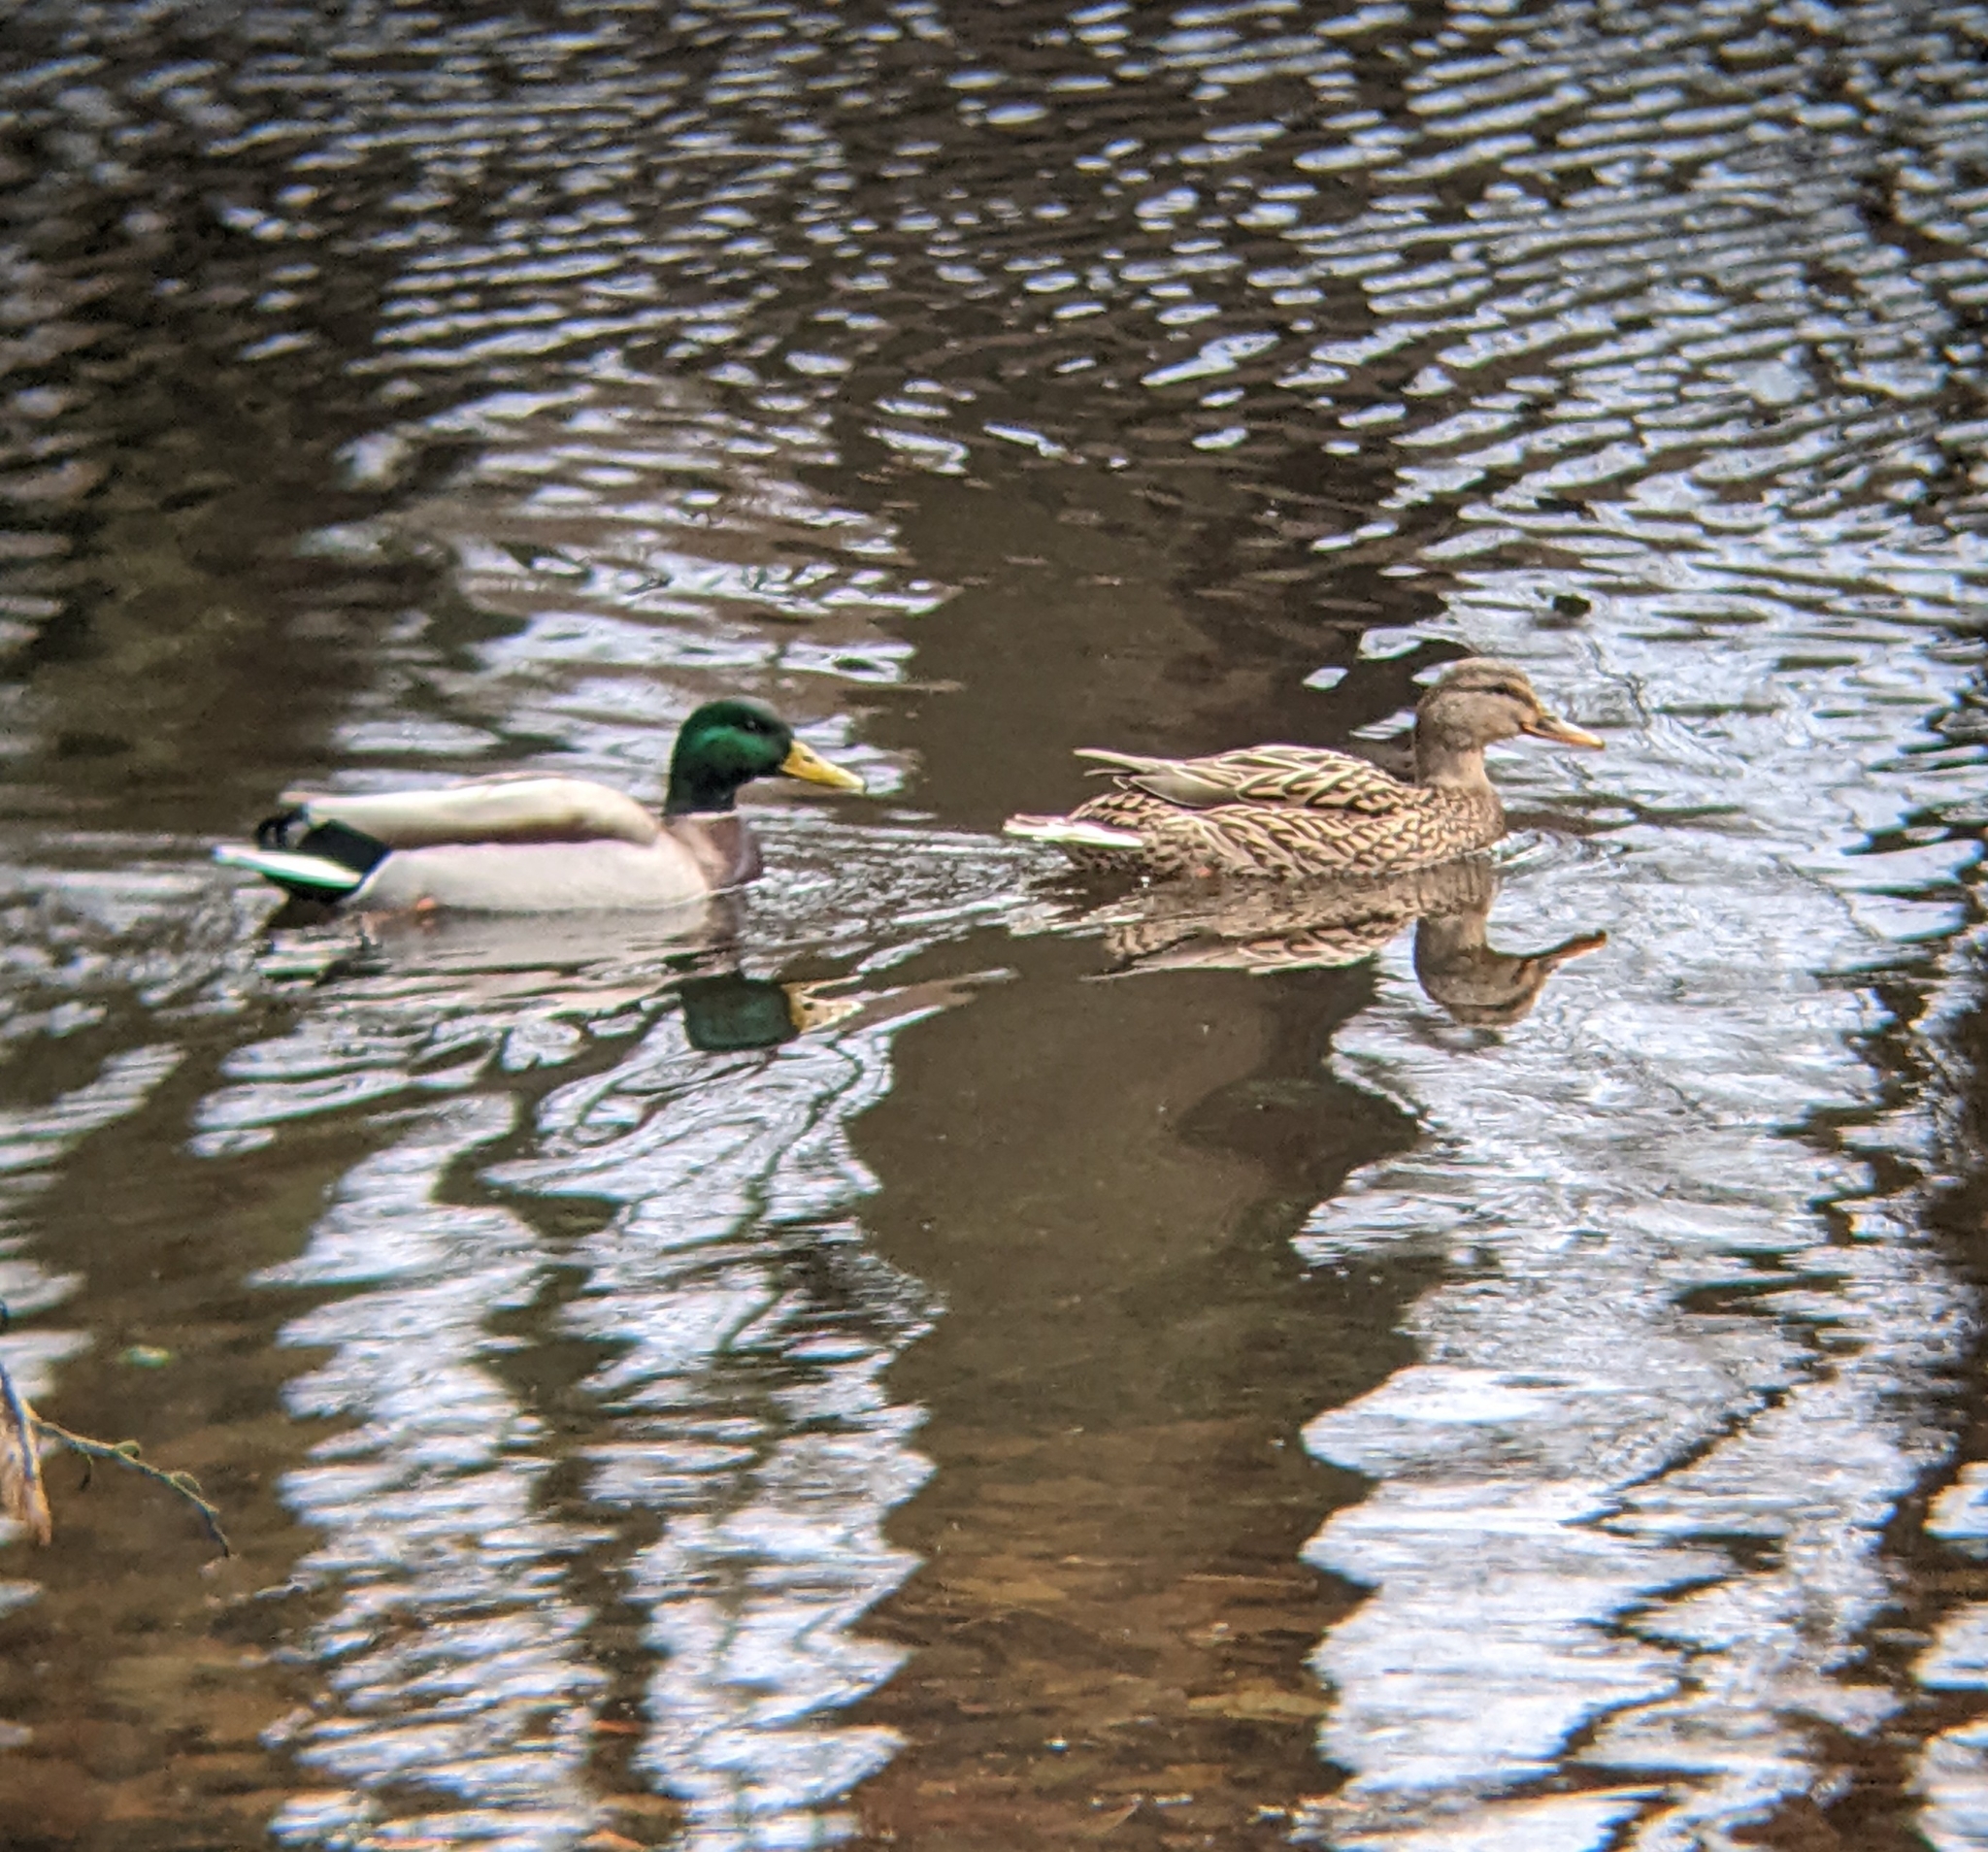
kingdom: Animalia
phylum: Chordata
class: Aves
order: Anseriformes
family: Anatidae
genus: Anas
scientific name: Anas platyrhynchos
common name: Mallard
